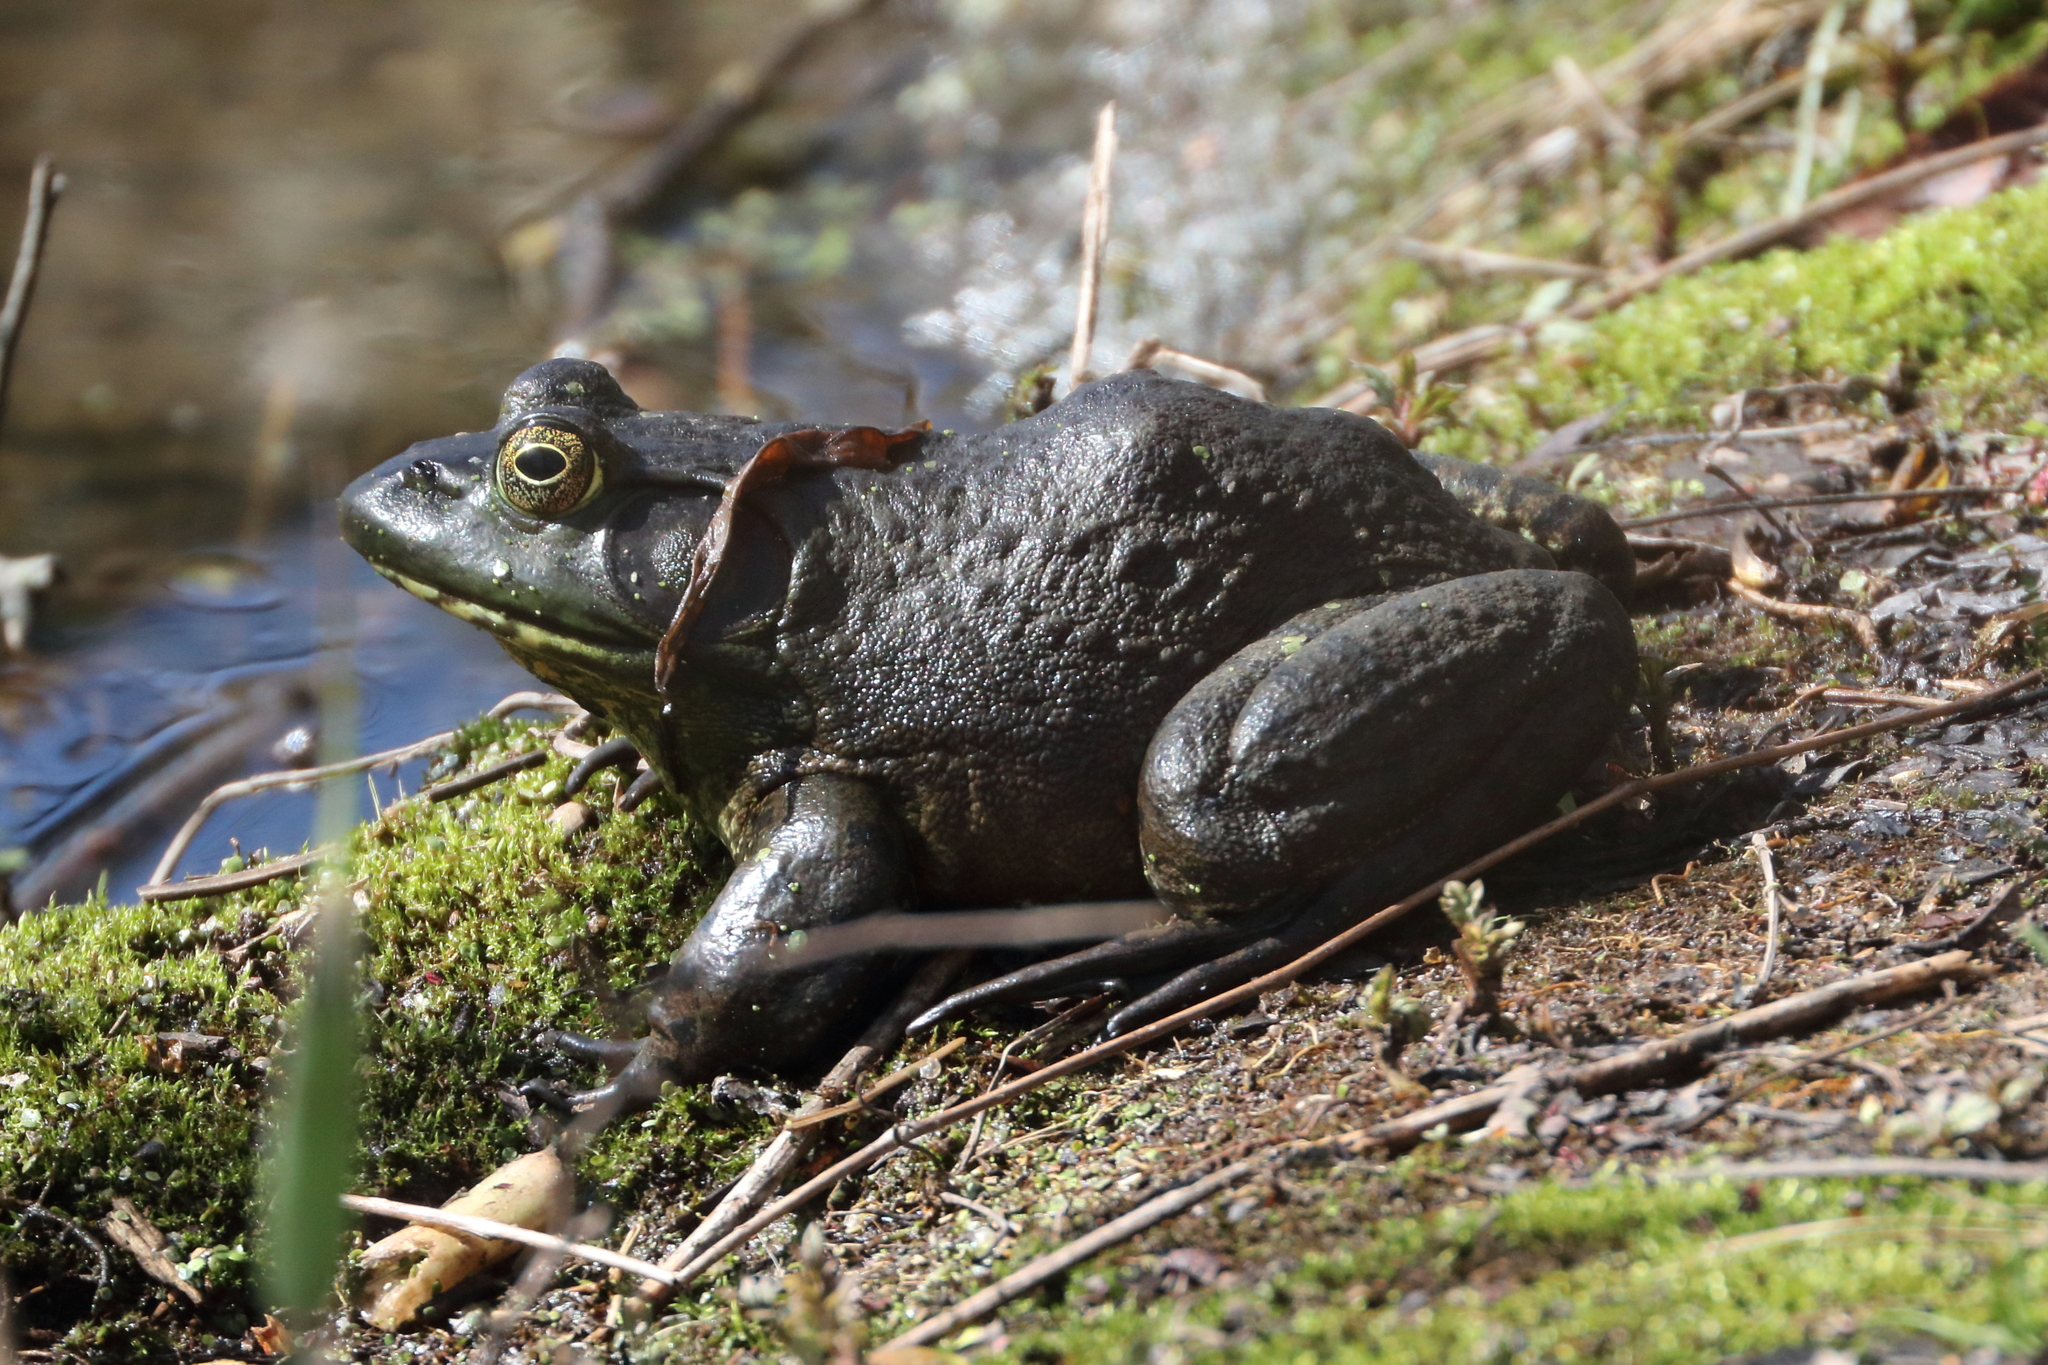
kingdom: Animalia
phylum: Chordata
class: Amphibia
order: Anura
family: Ranidae
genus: Lithobates
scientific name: Lithobates catesbeianus
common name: American bullfrog
